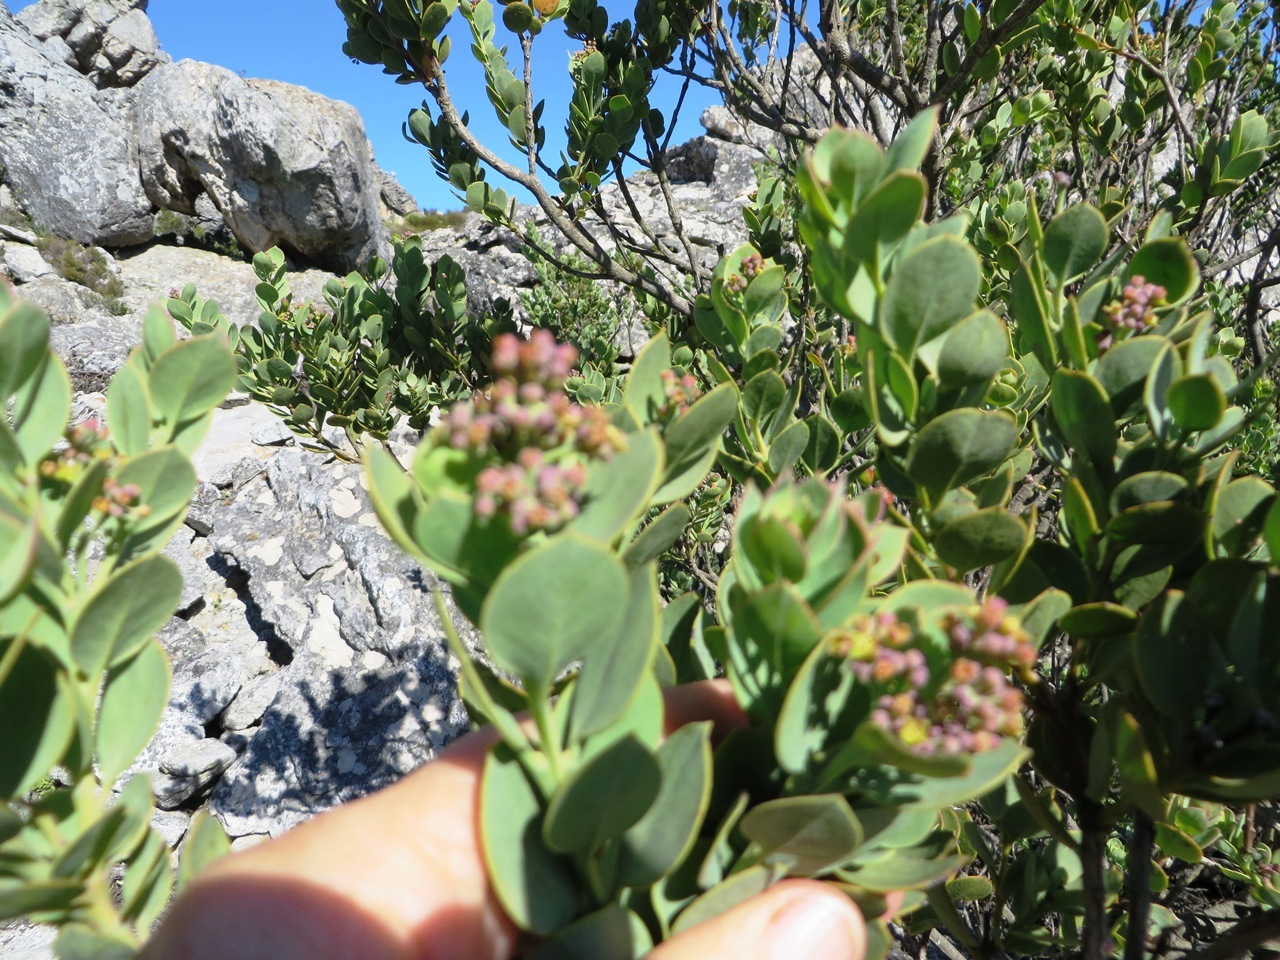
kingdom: Plantae
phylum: Tracheophyta
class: Magnoliopsida
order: Santalales
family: Santalaceae
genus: Osyris
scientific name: Osyris compressa
